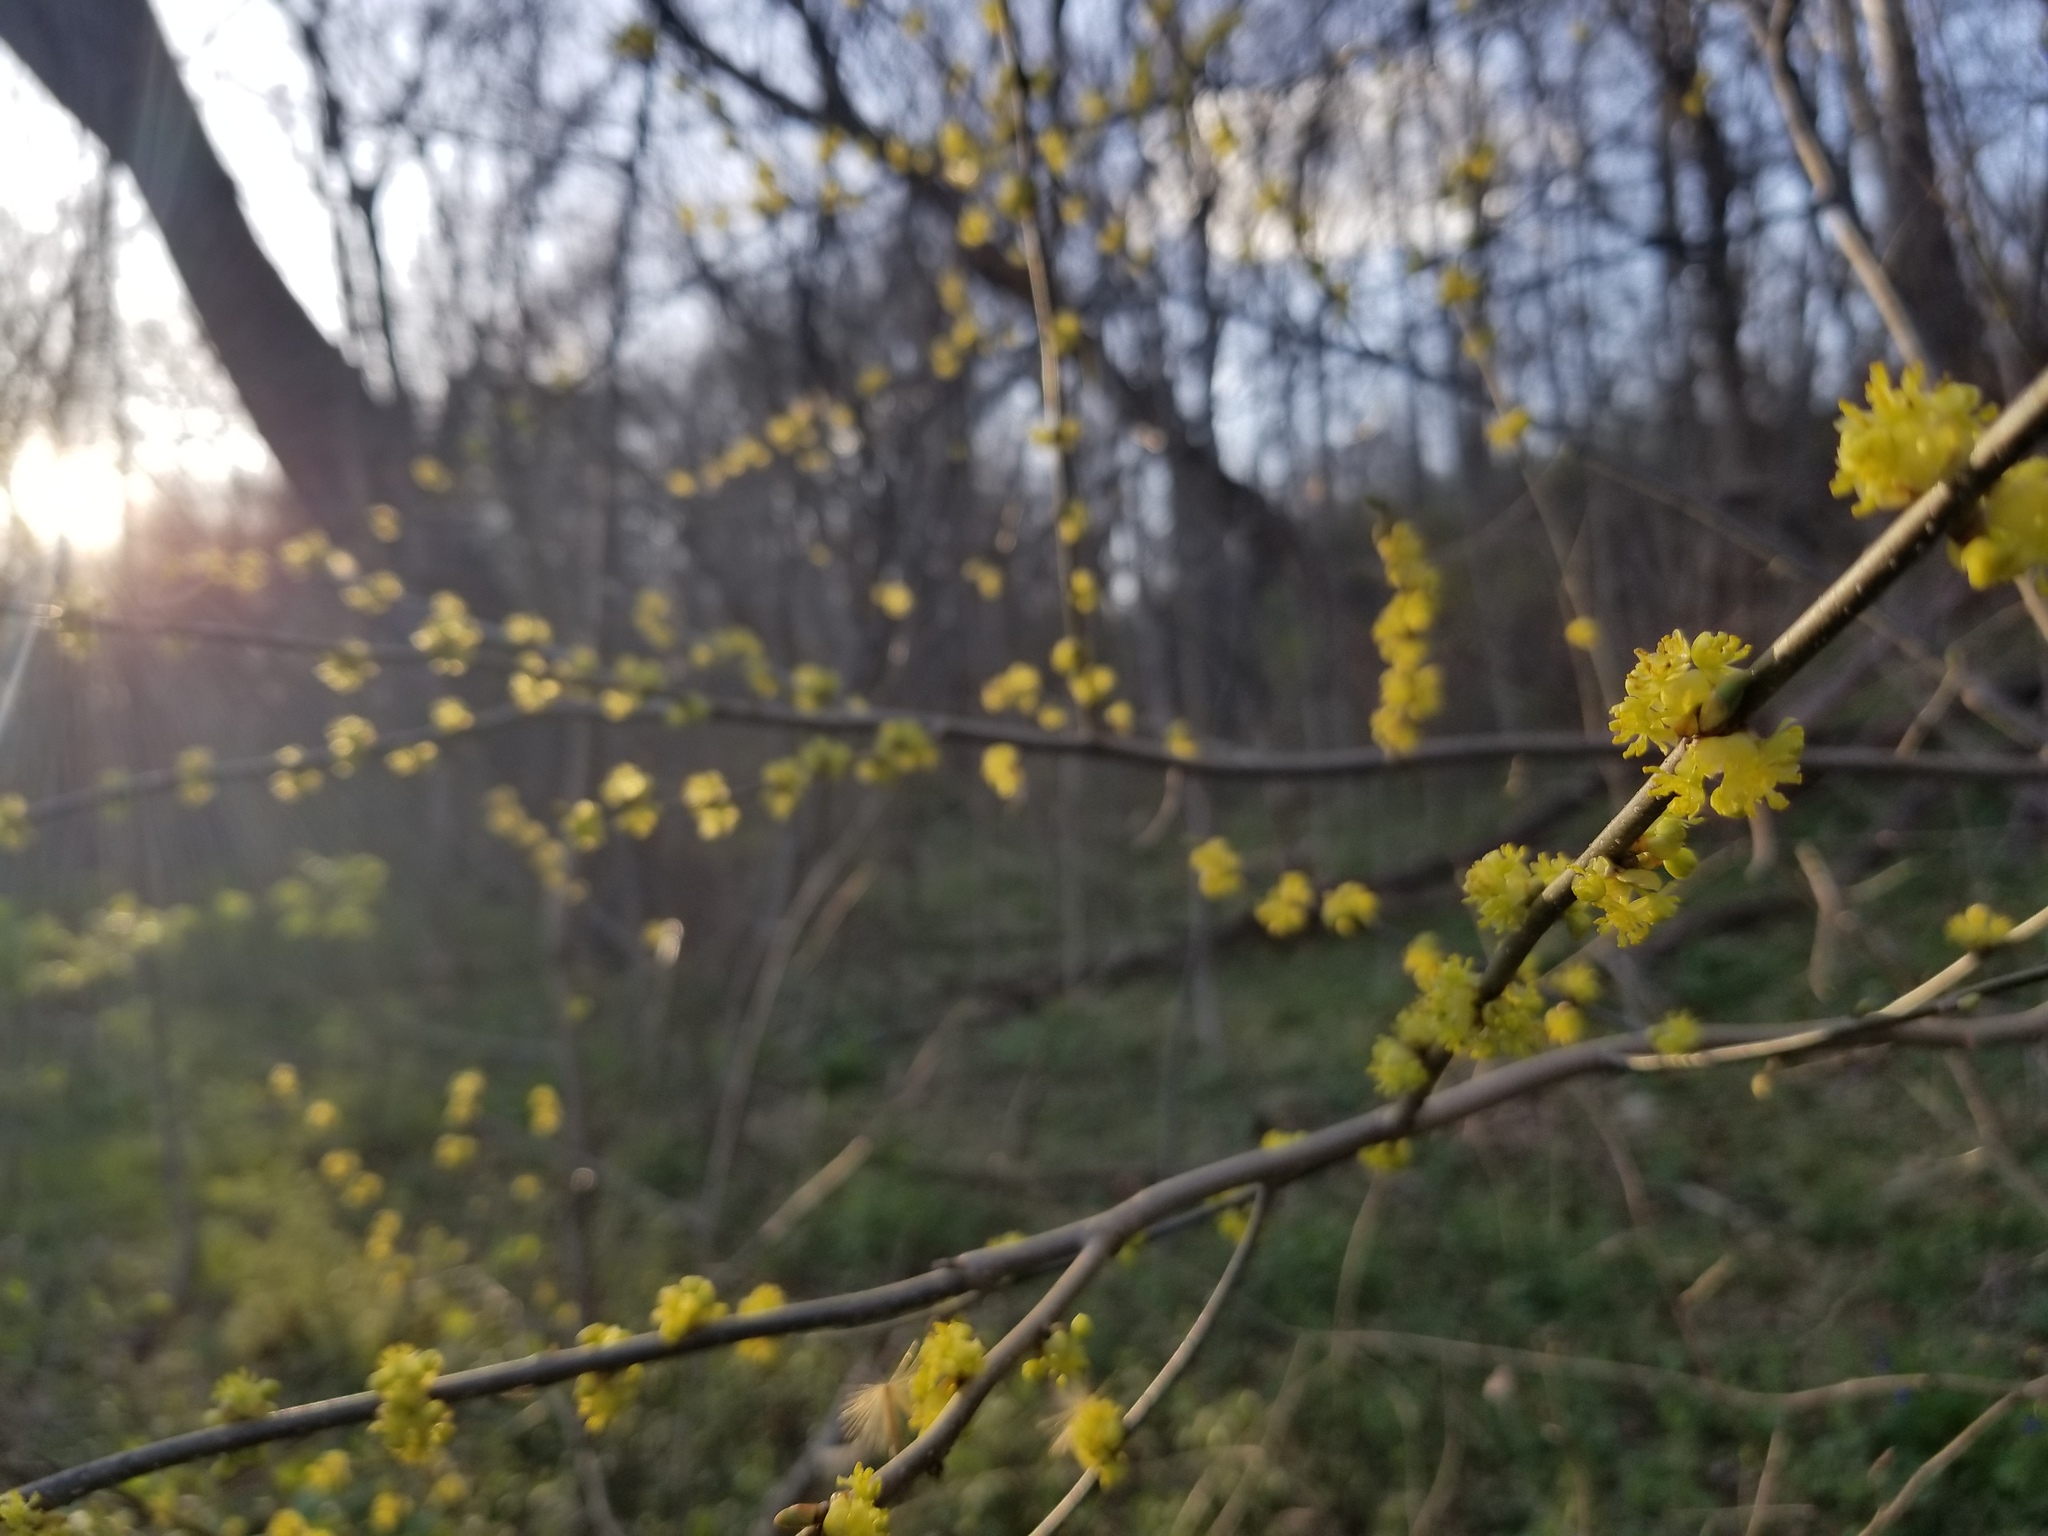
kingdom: Plantae
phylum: Tracheophyta
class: Magnoliopsida
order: Laurales
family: Lauraceae
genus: Lindera
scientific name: Lindera benzoin
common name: Spicebush
